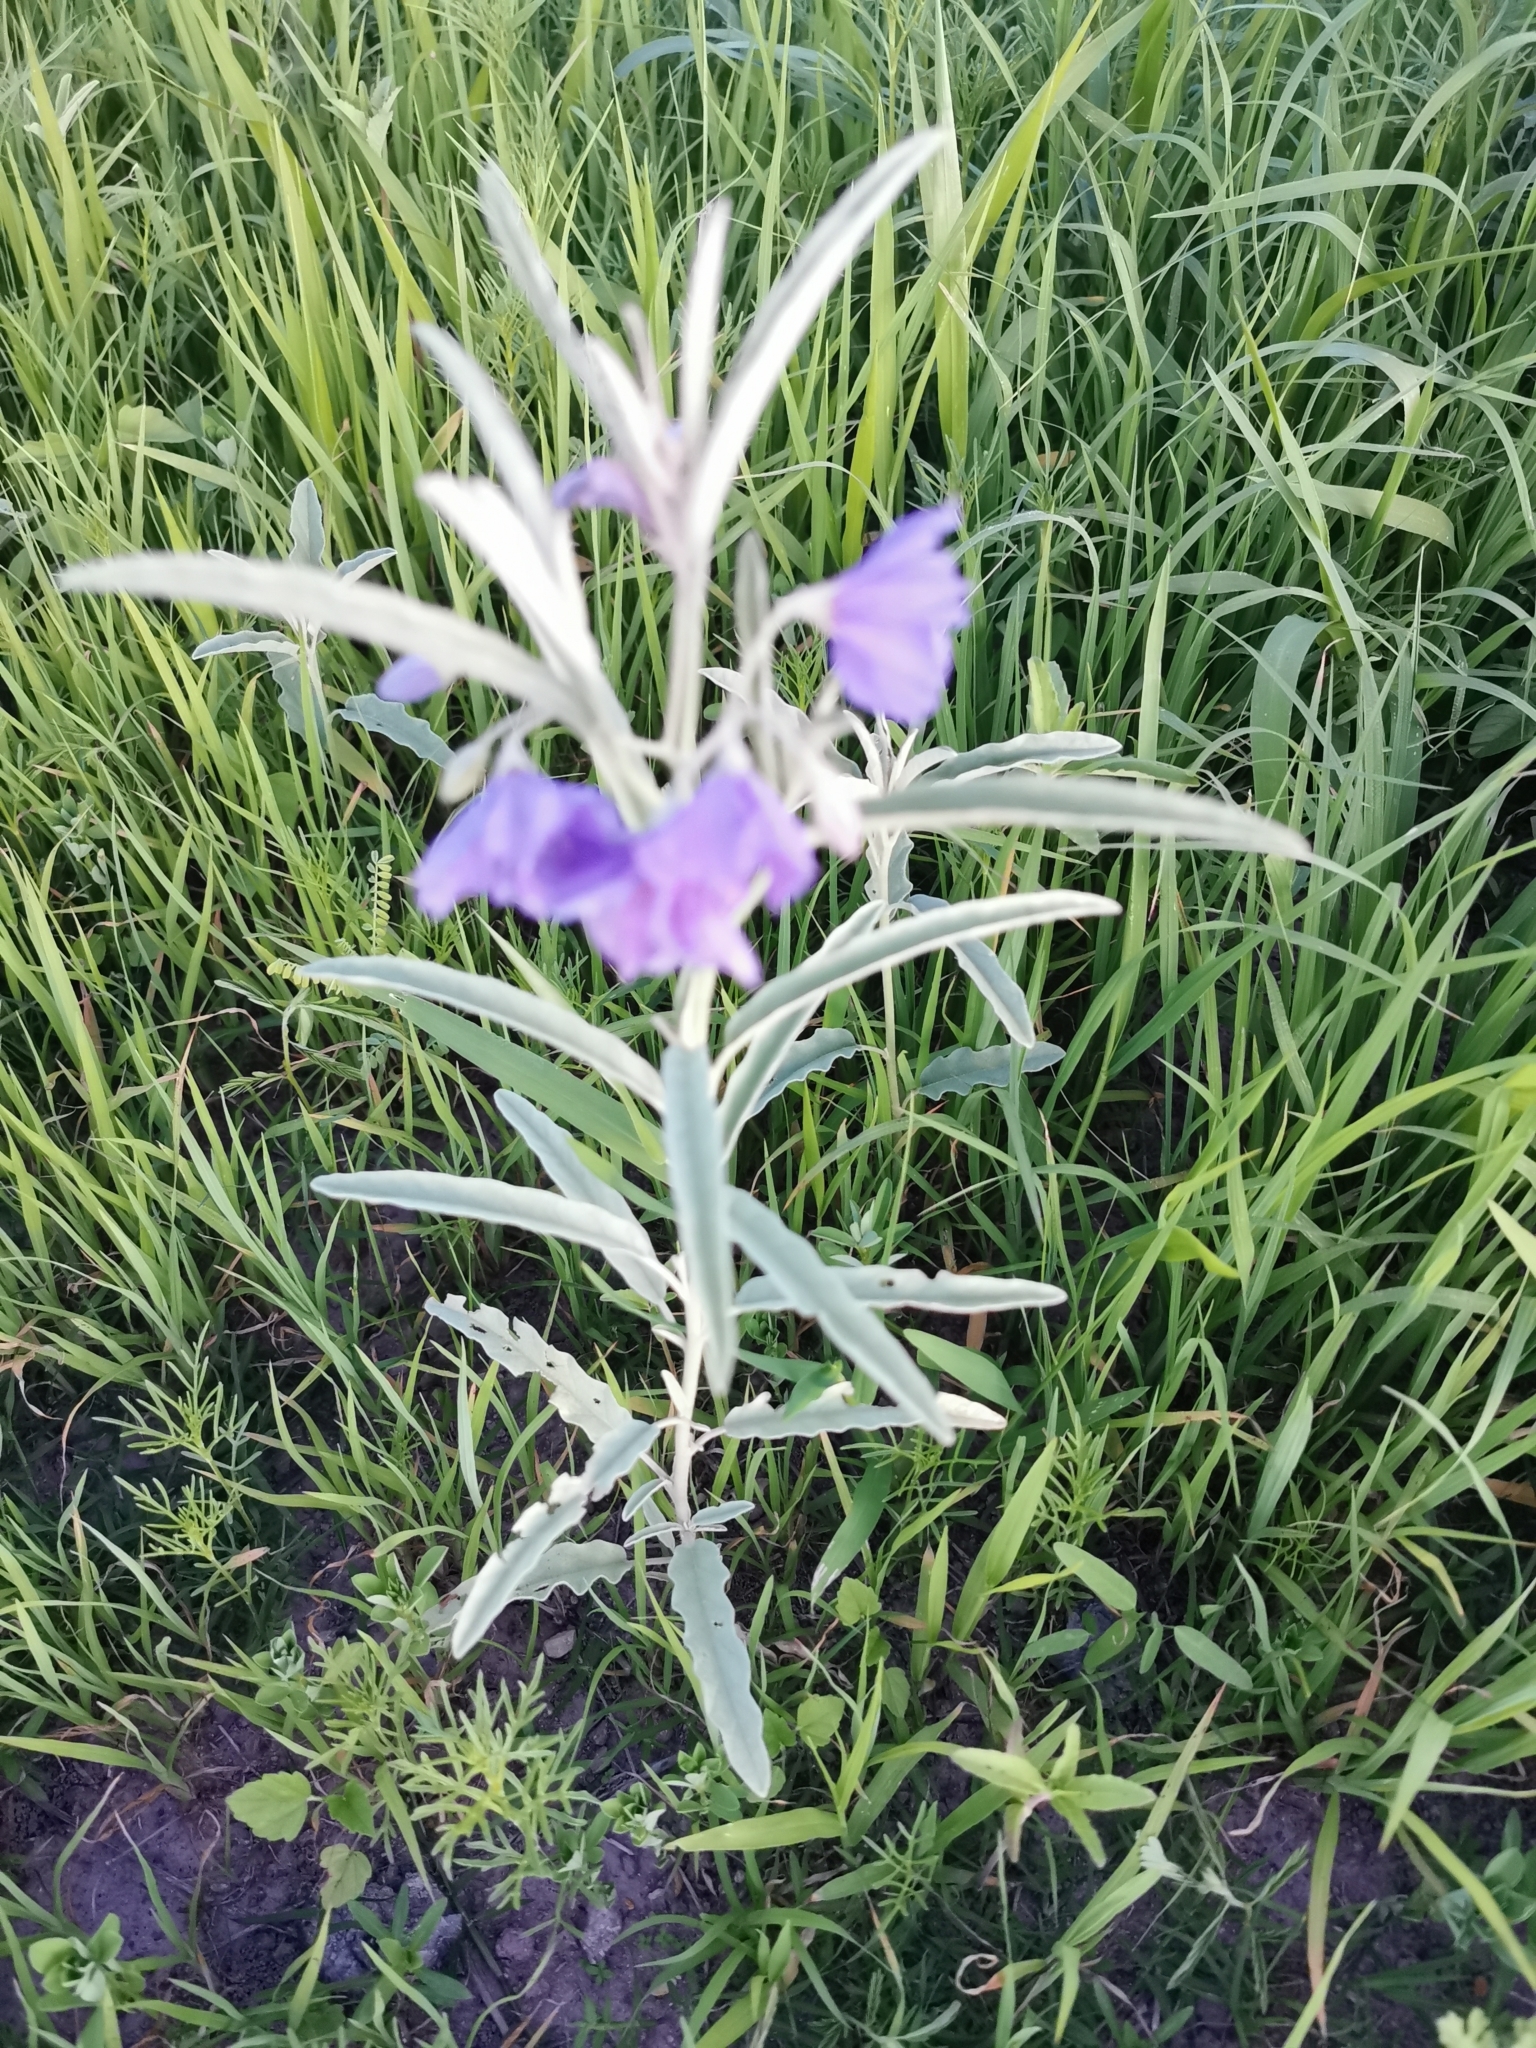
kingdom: Plantae
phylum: Tracheophyta
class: Magnoliopsida
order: Solanales
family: Solanaceae
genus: Solanum
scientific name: Solanum elaeagnifolium
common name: Silverleaf nightshade
